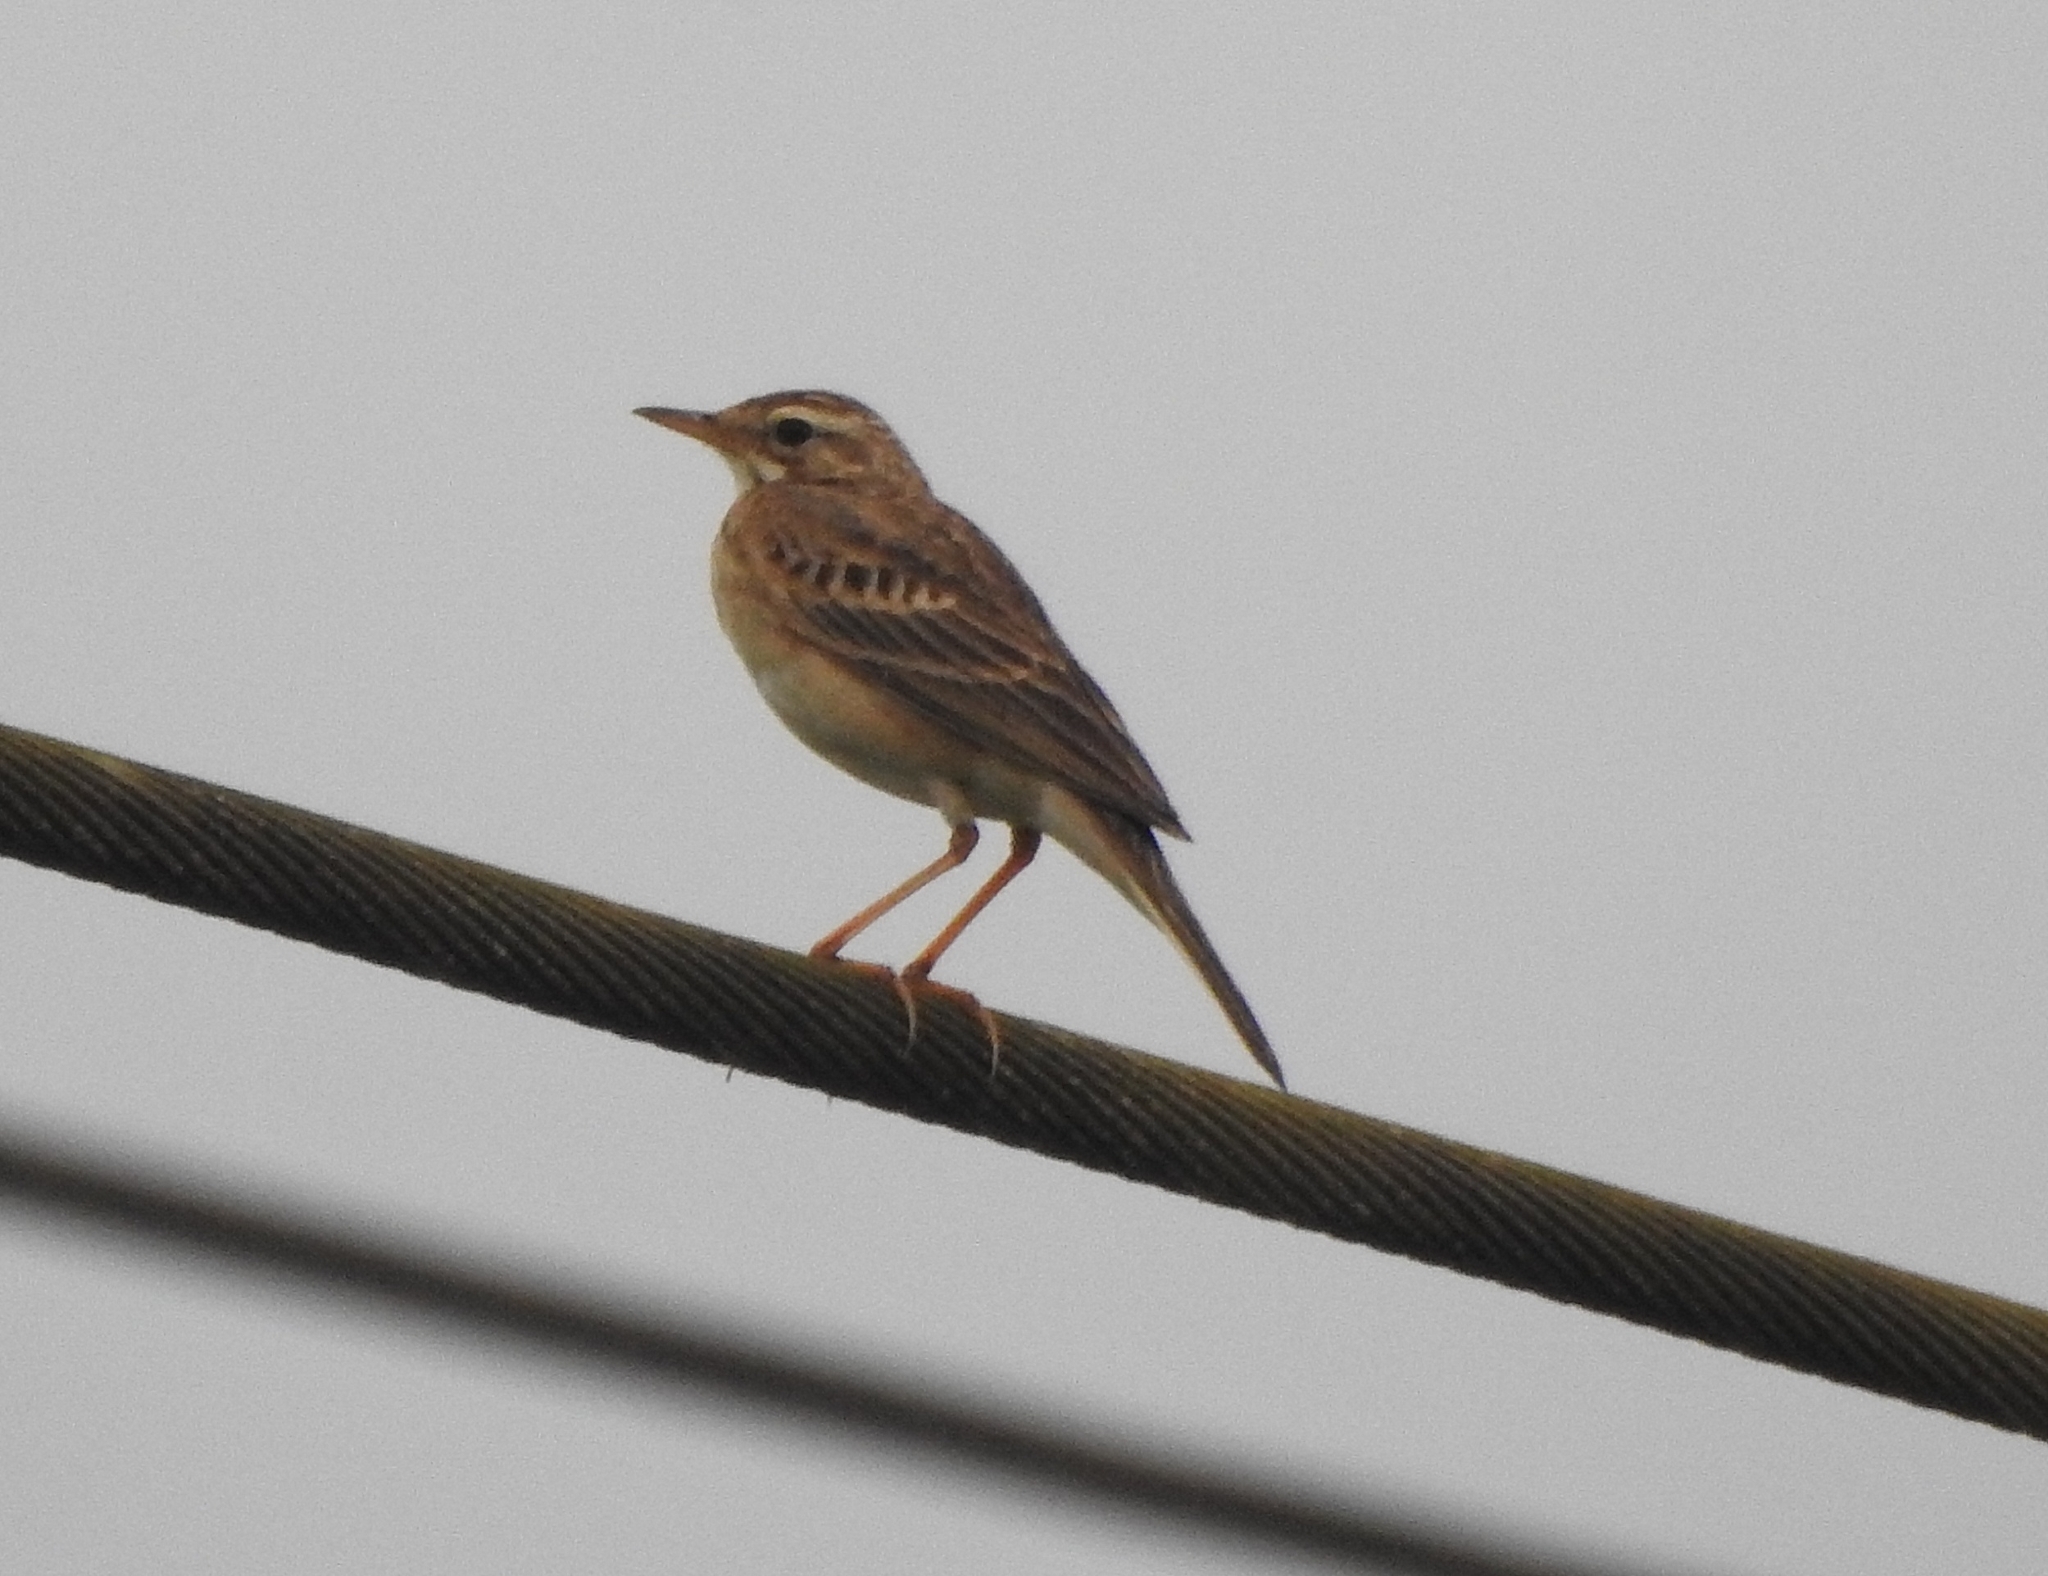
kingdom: Animalia
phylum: Chordata
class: Aves
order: Passeriformes
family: Motacillidae
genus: Anthus
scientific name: Anthus rufulus
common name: Paddyfield pipit
